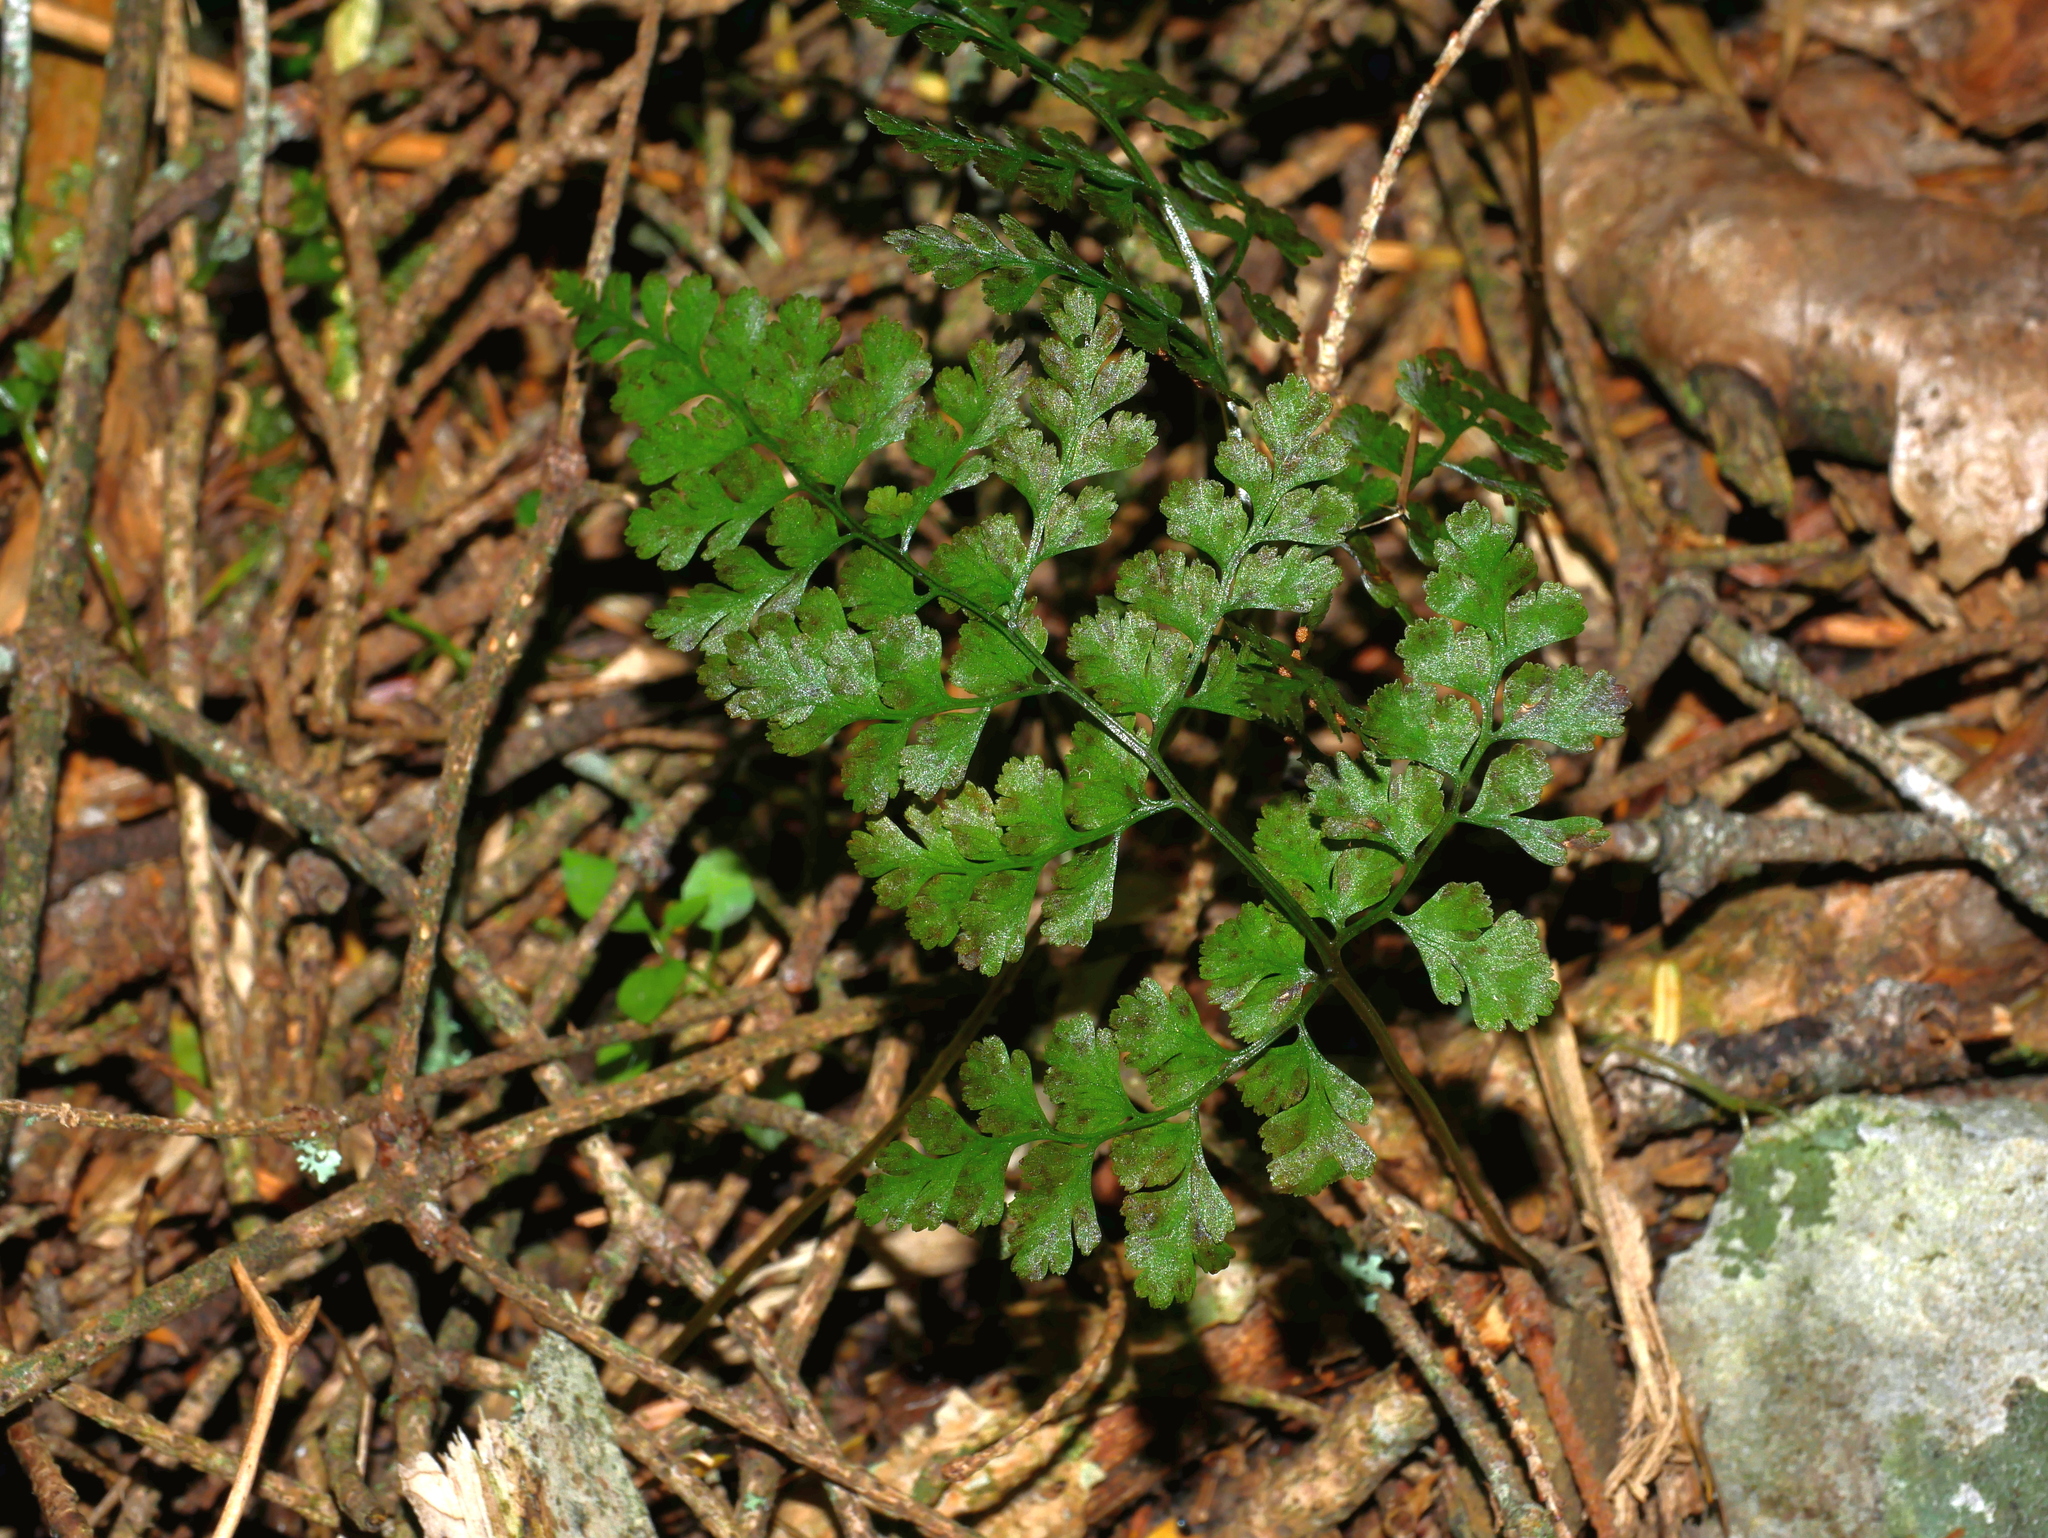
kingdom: Plantae
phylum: Tracheophyta
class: Polypodiopsida
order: Polypodiales
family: Cystopteridaceae
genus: Cystopteris
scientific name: Cystopteris moupinensis
